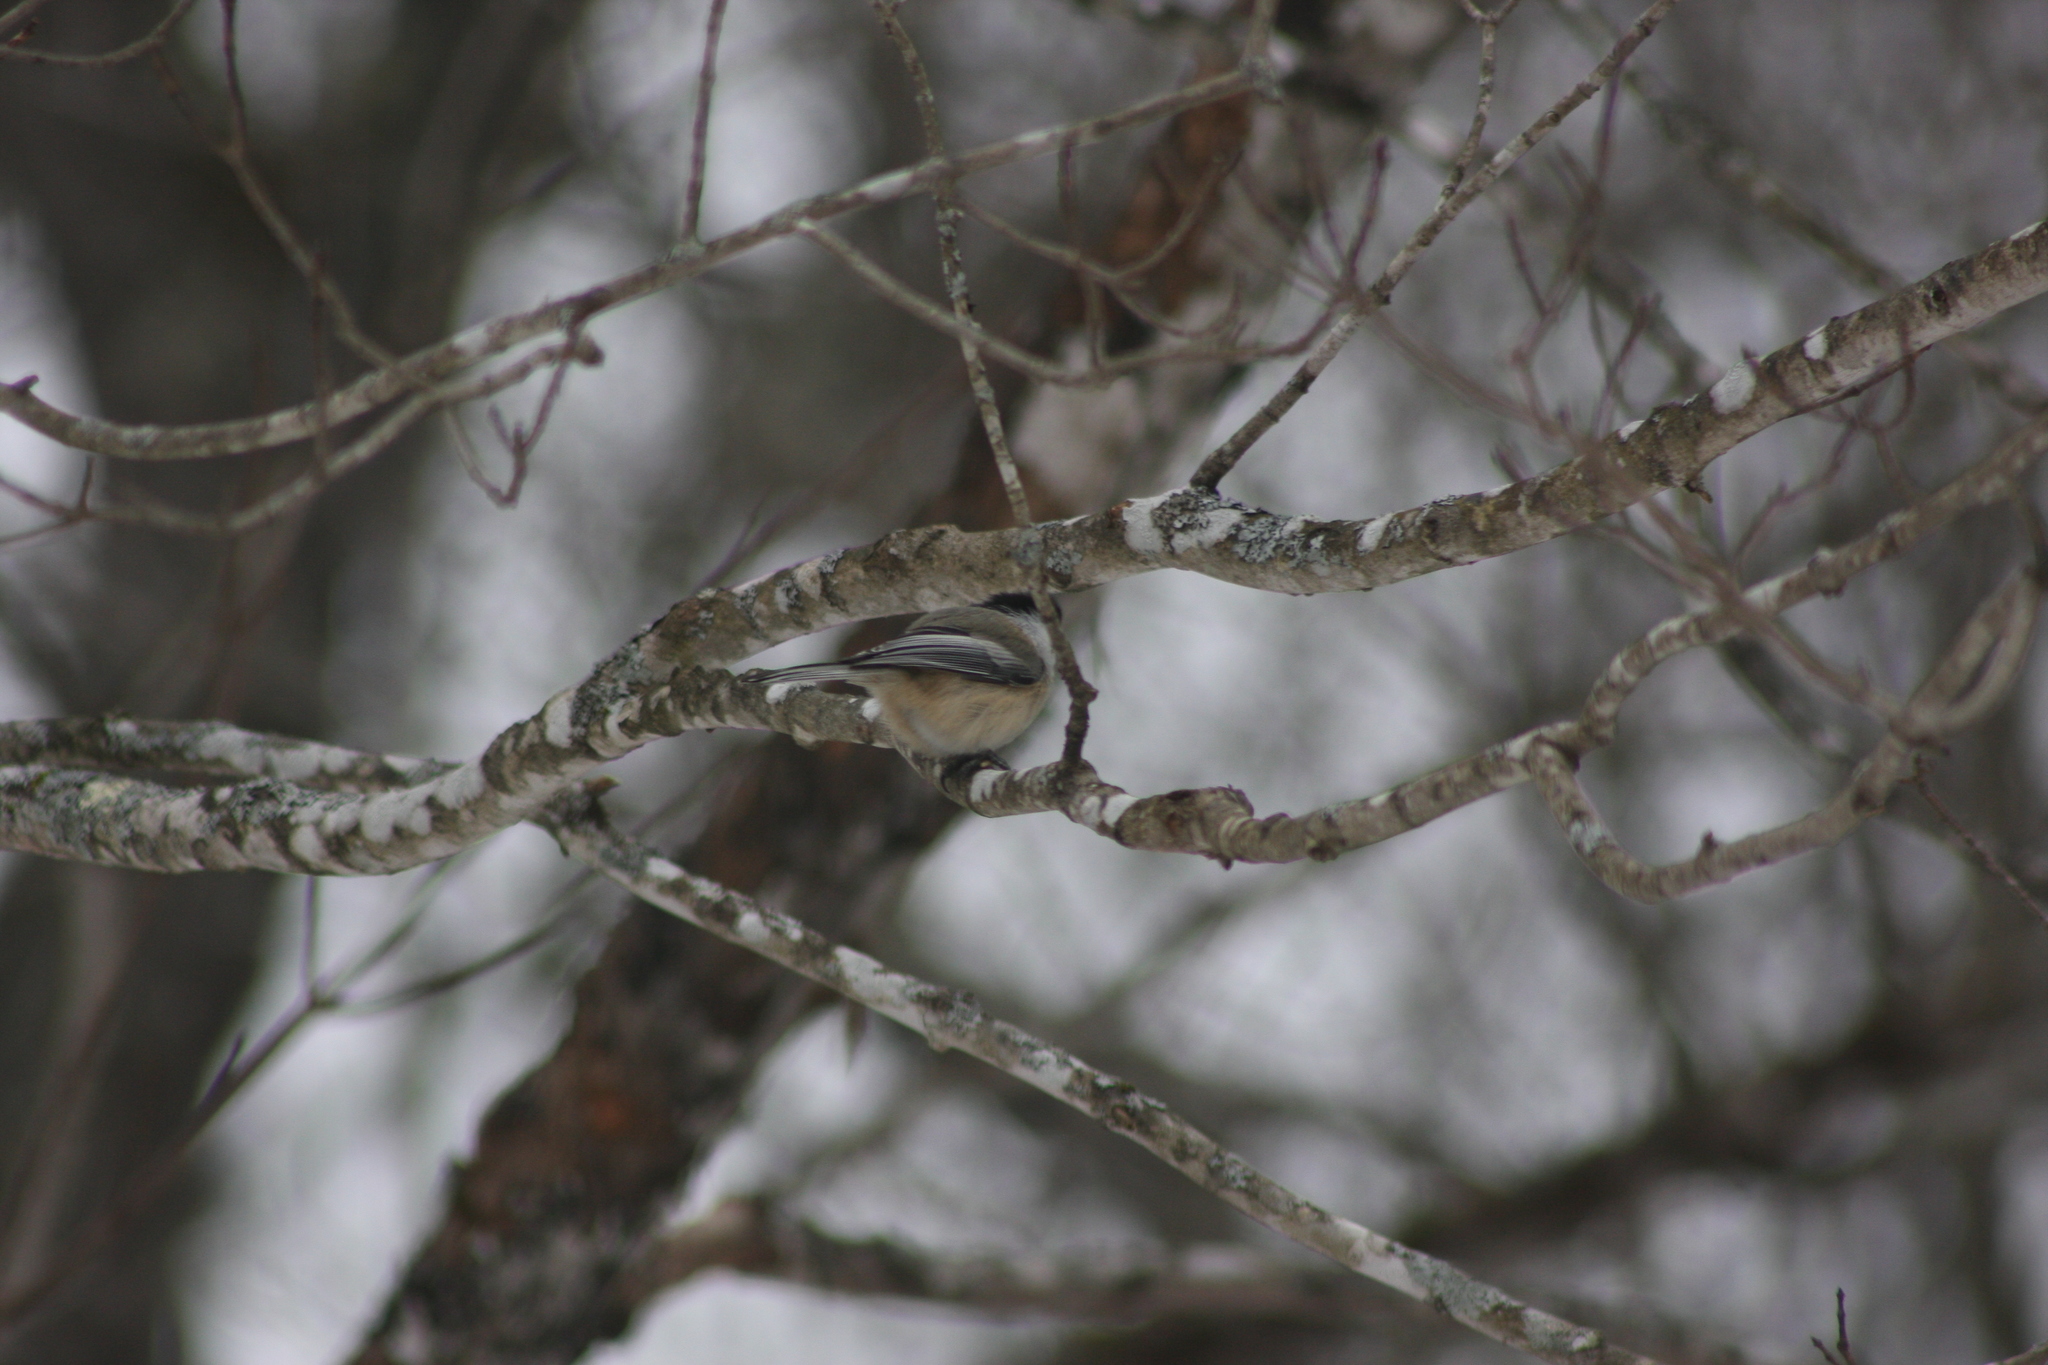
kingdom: Animalia
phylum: Chordata
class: Aves
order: Passeriformes
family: Paridae
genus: Poecile
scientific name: Poecile atricapillus
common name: Black-capped chickadee
